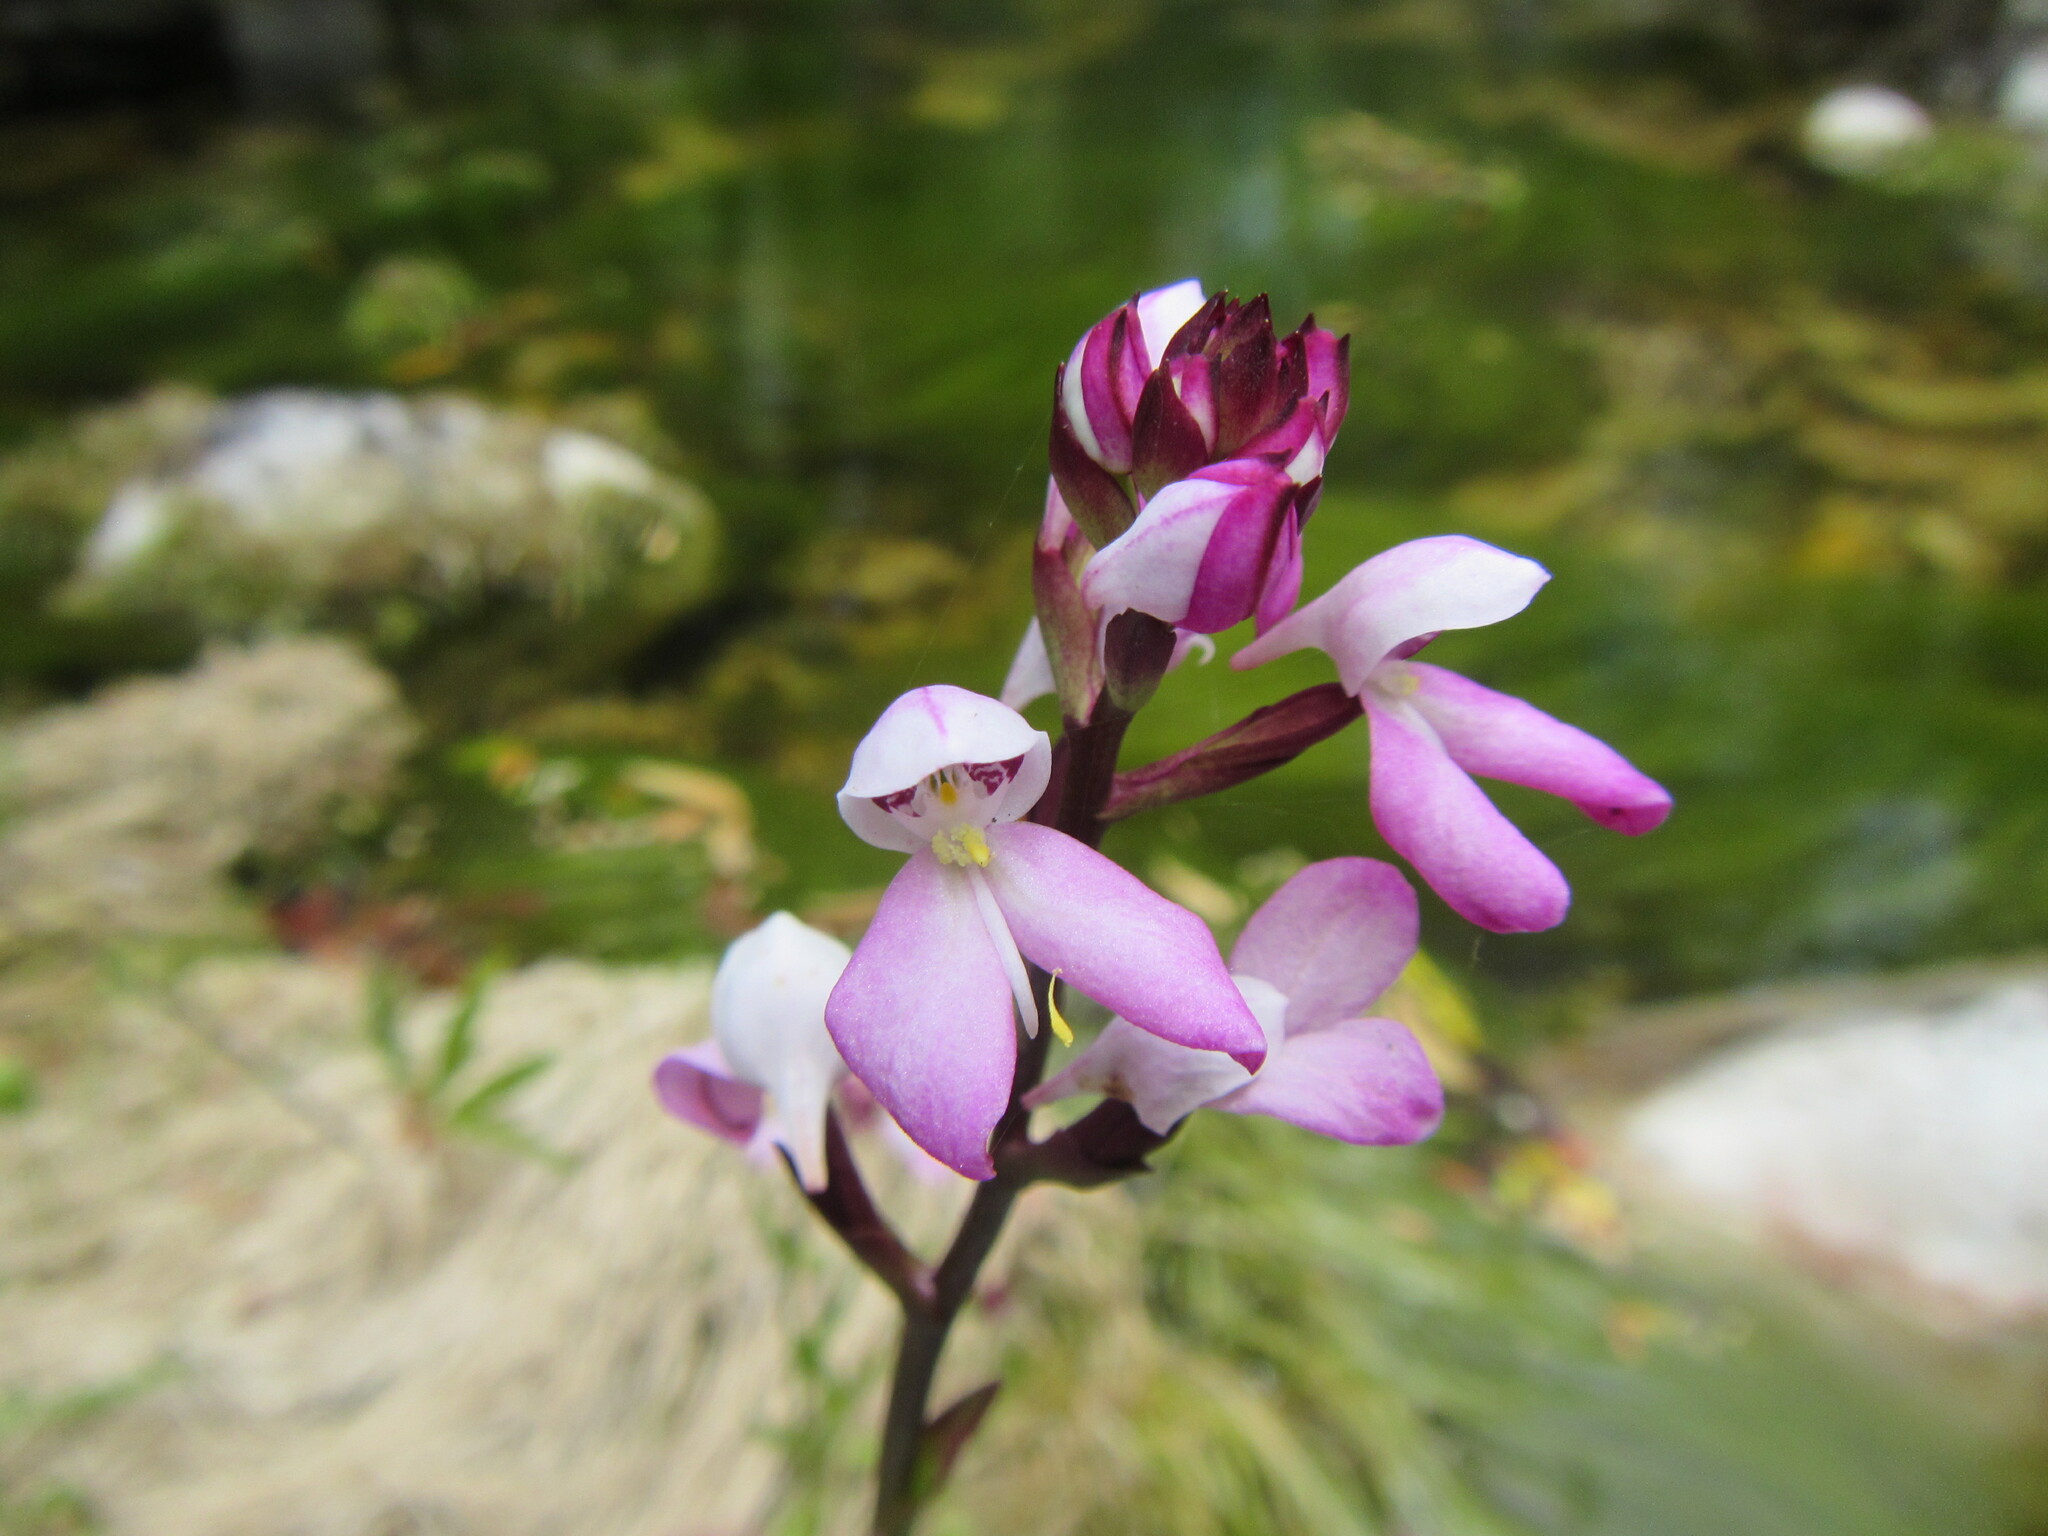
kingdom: Plantae
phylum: Tracheophyta
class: Liliopsida
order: Asparagales
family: Orchidaceae
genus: Disa
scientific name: Disa caulescens
